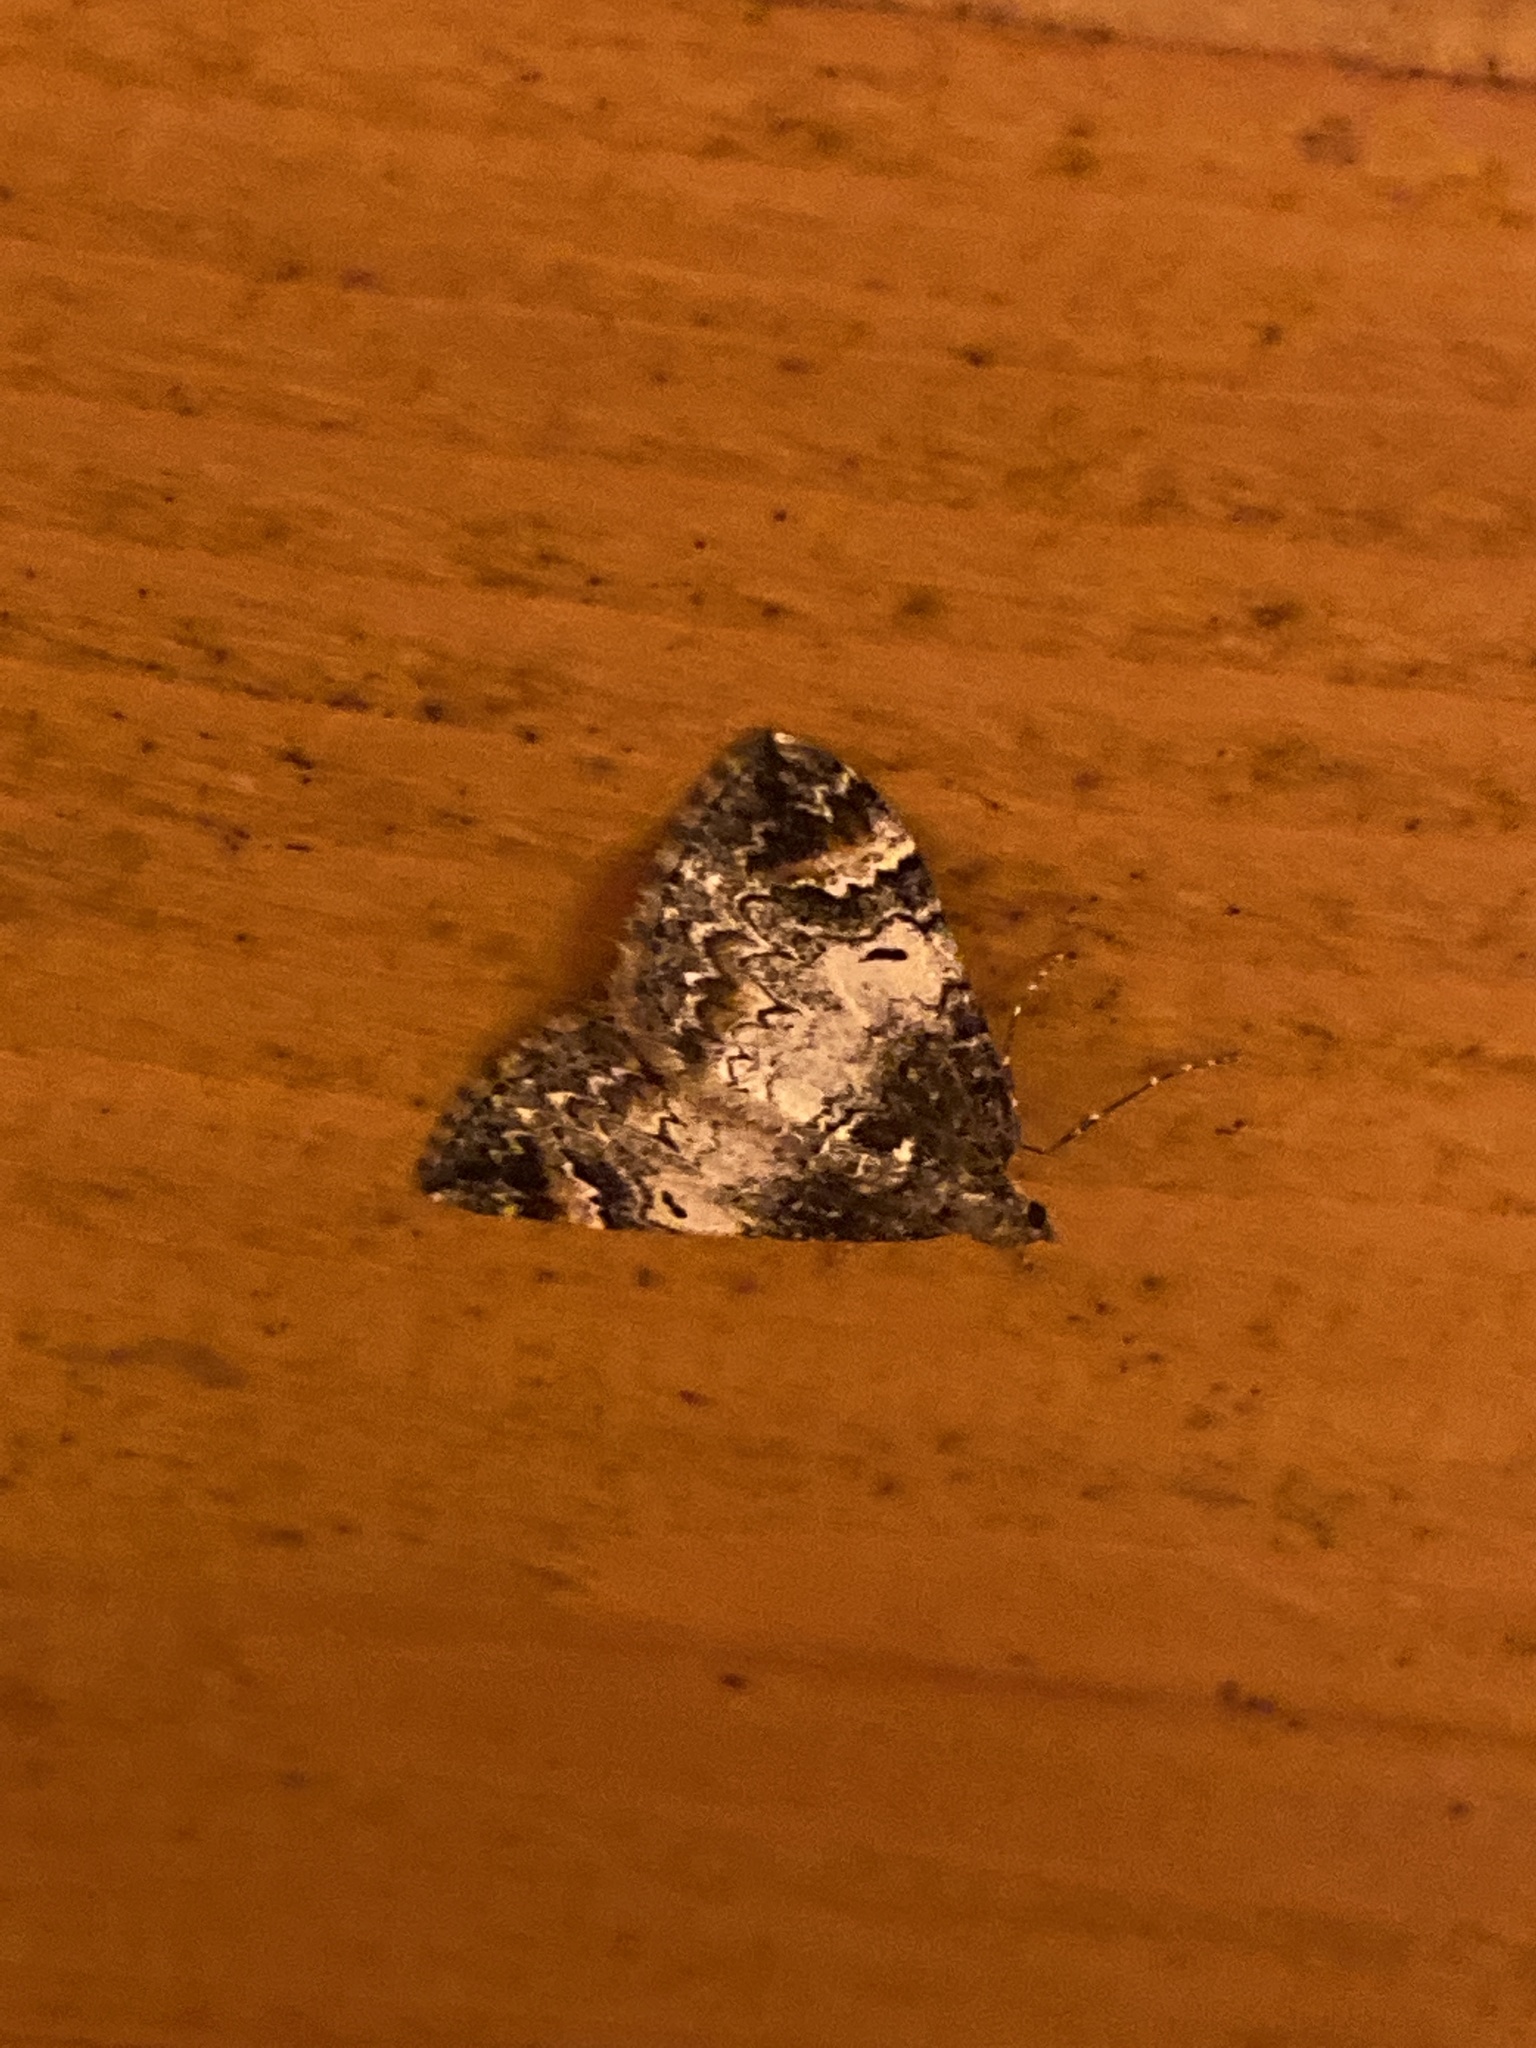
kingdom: Animalia
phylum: Arthropoda
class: Insecta
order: Lepidoptera
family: Geometridae
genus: Dysstroma
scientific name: Dysstroma truncata
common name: Common marbled carpet
